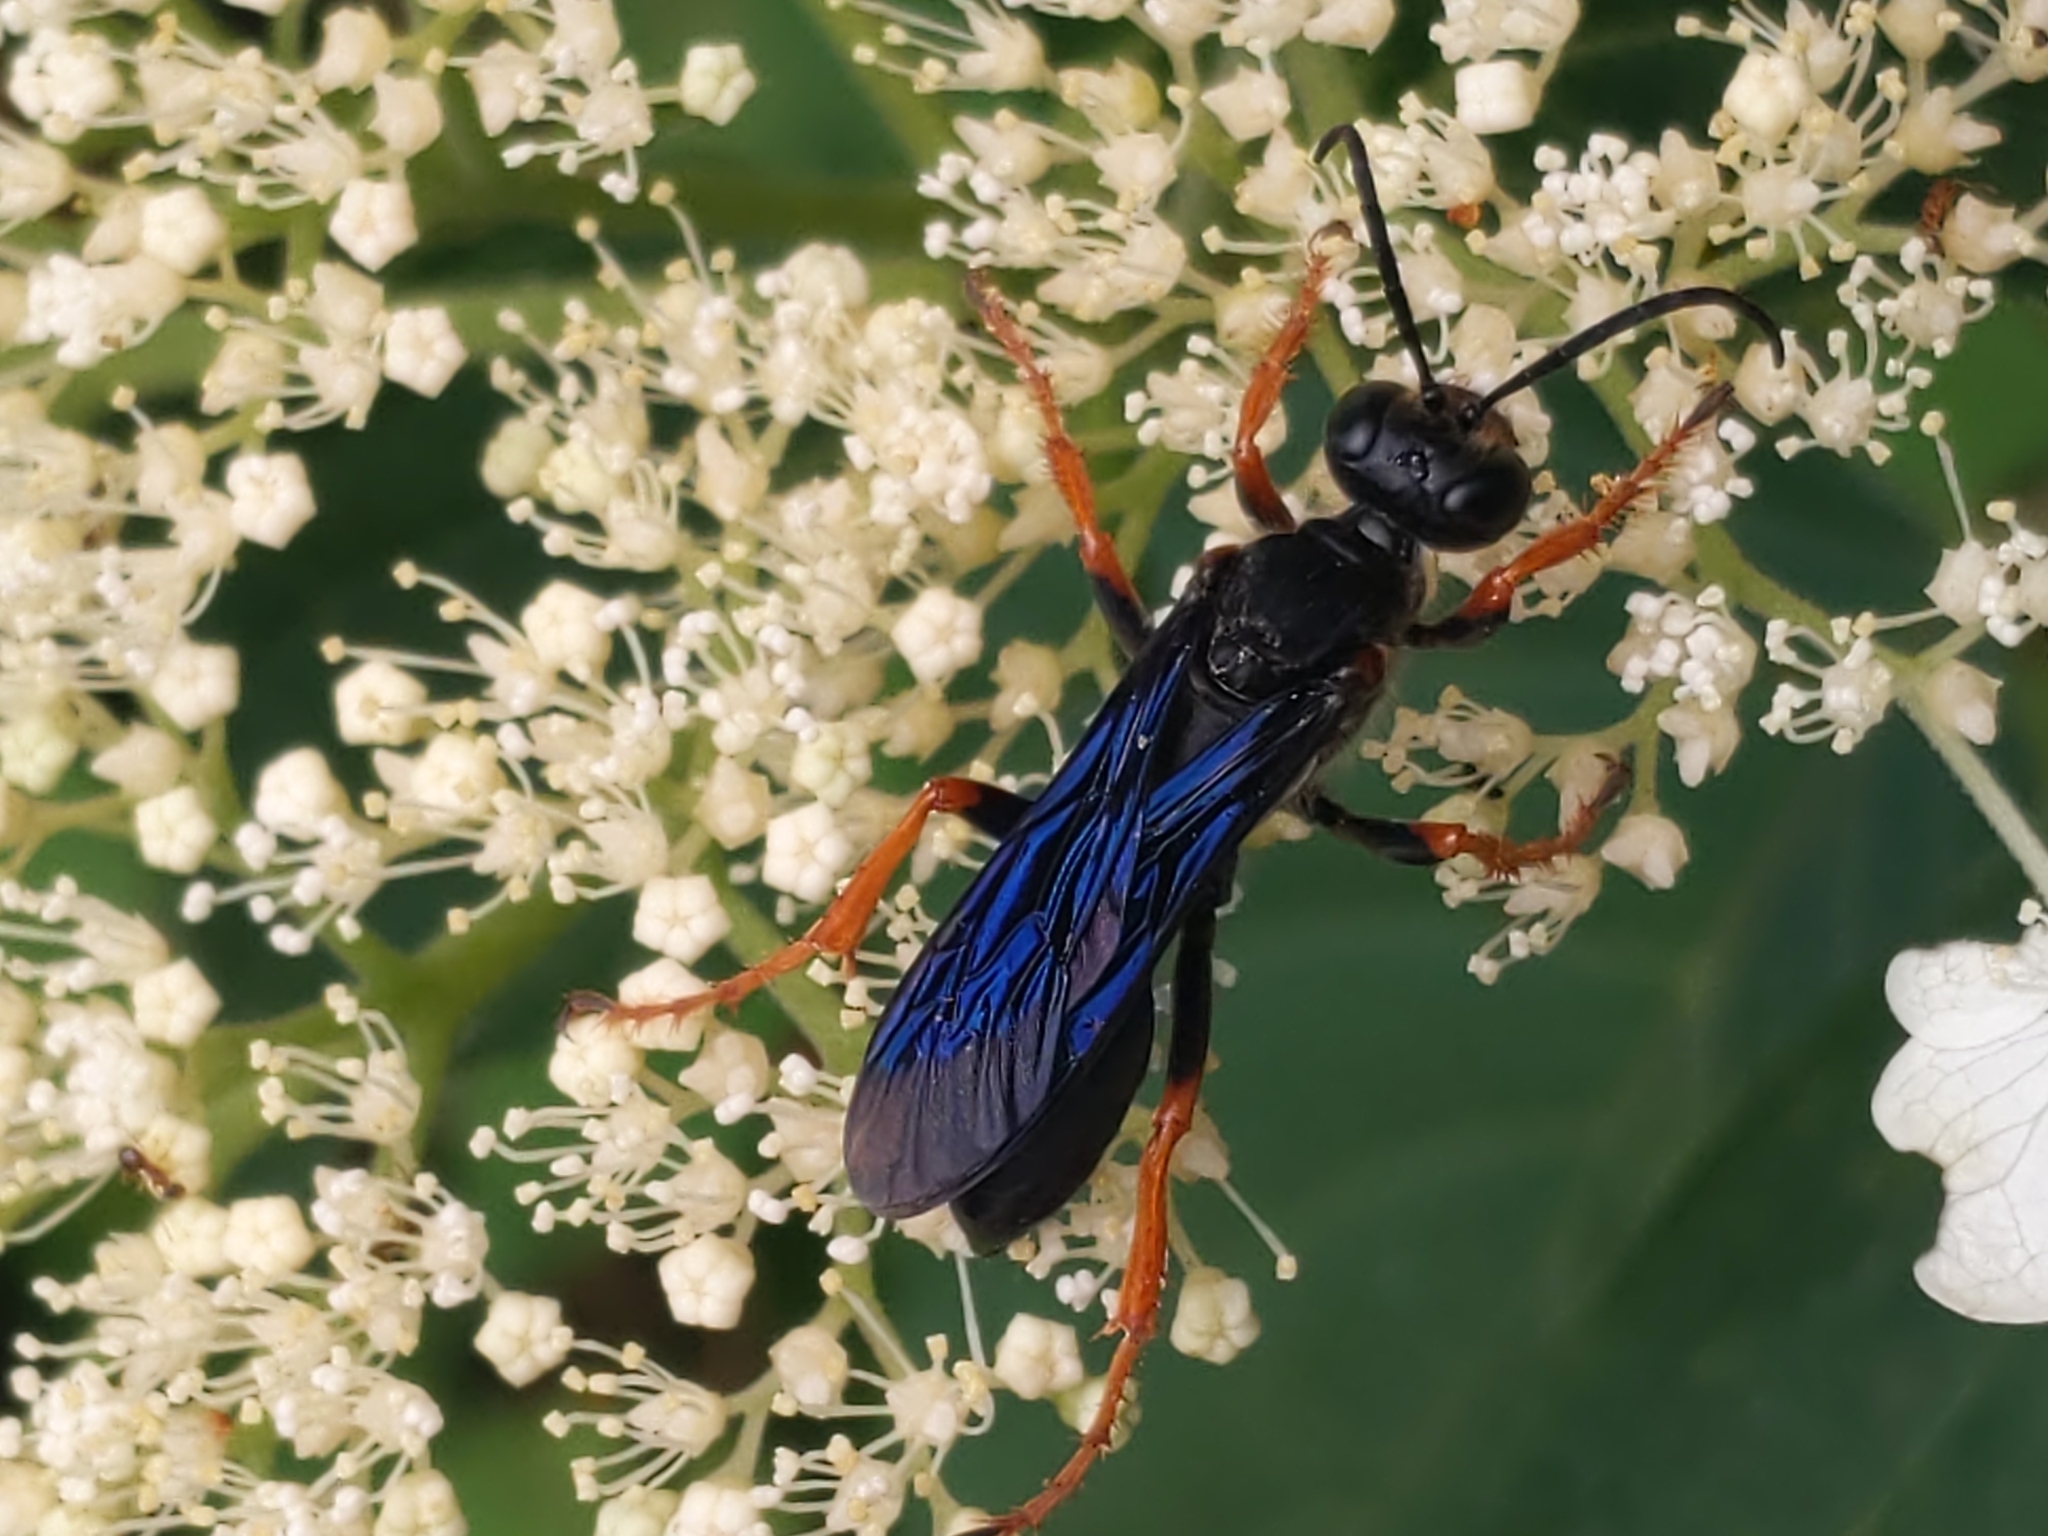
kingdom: Animalia
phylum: Arthropoda
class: Insecta
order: Hymenoptera
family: Sphecidae
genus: Sphex
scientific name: Sphex nudus
